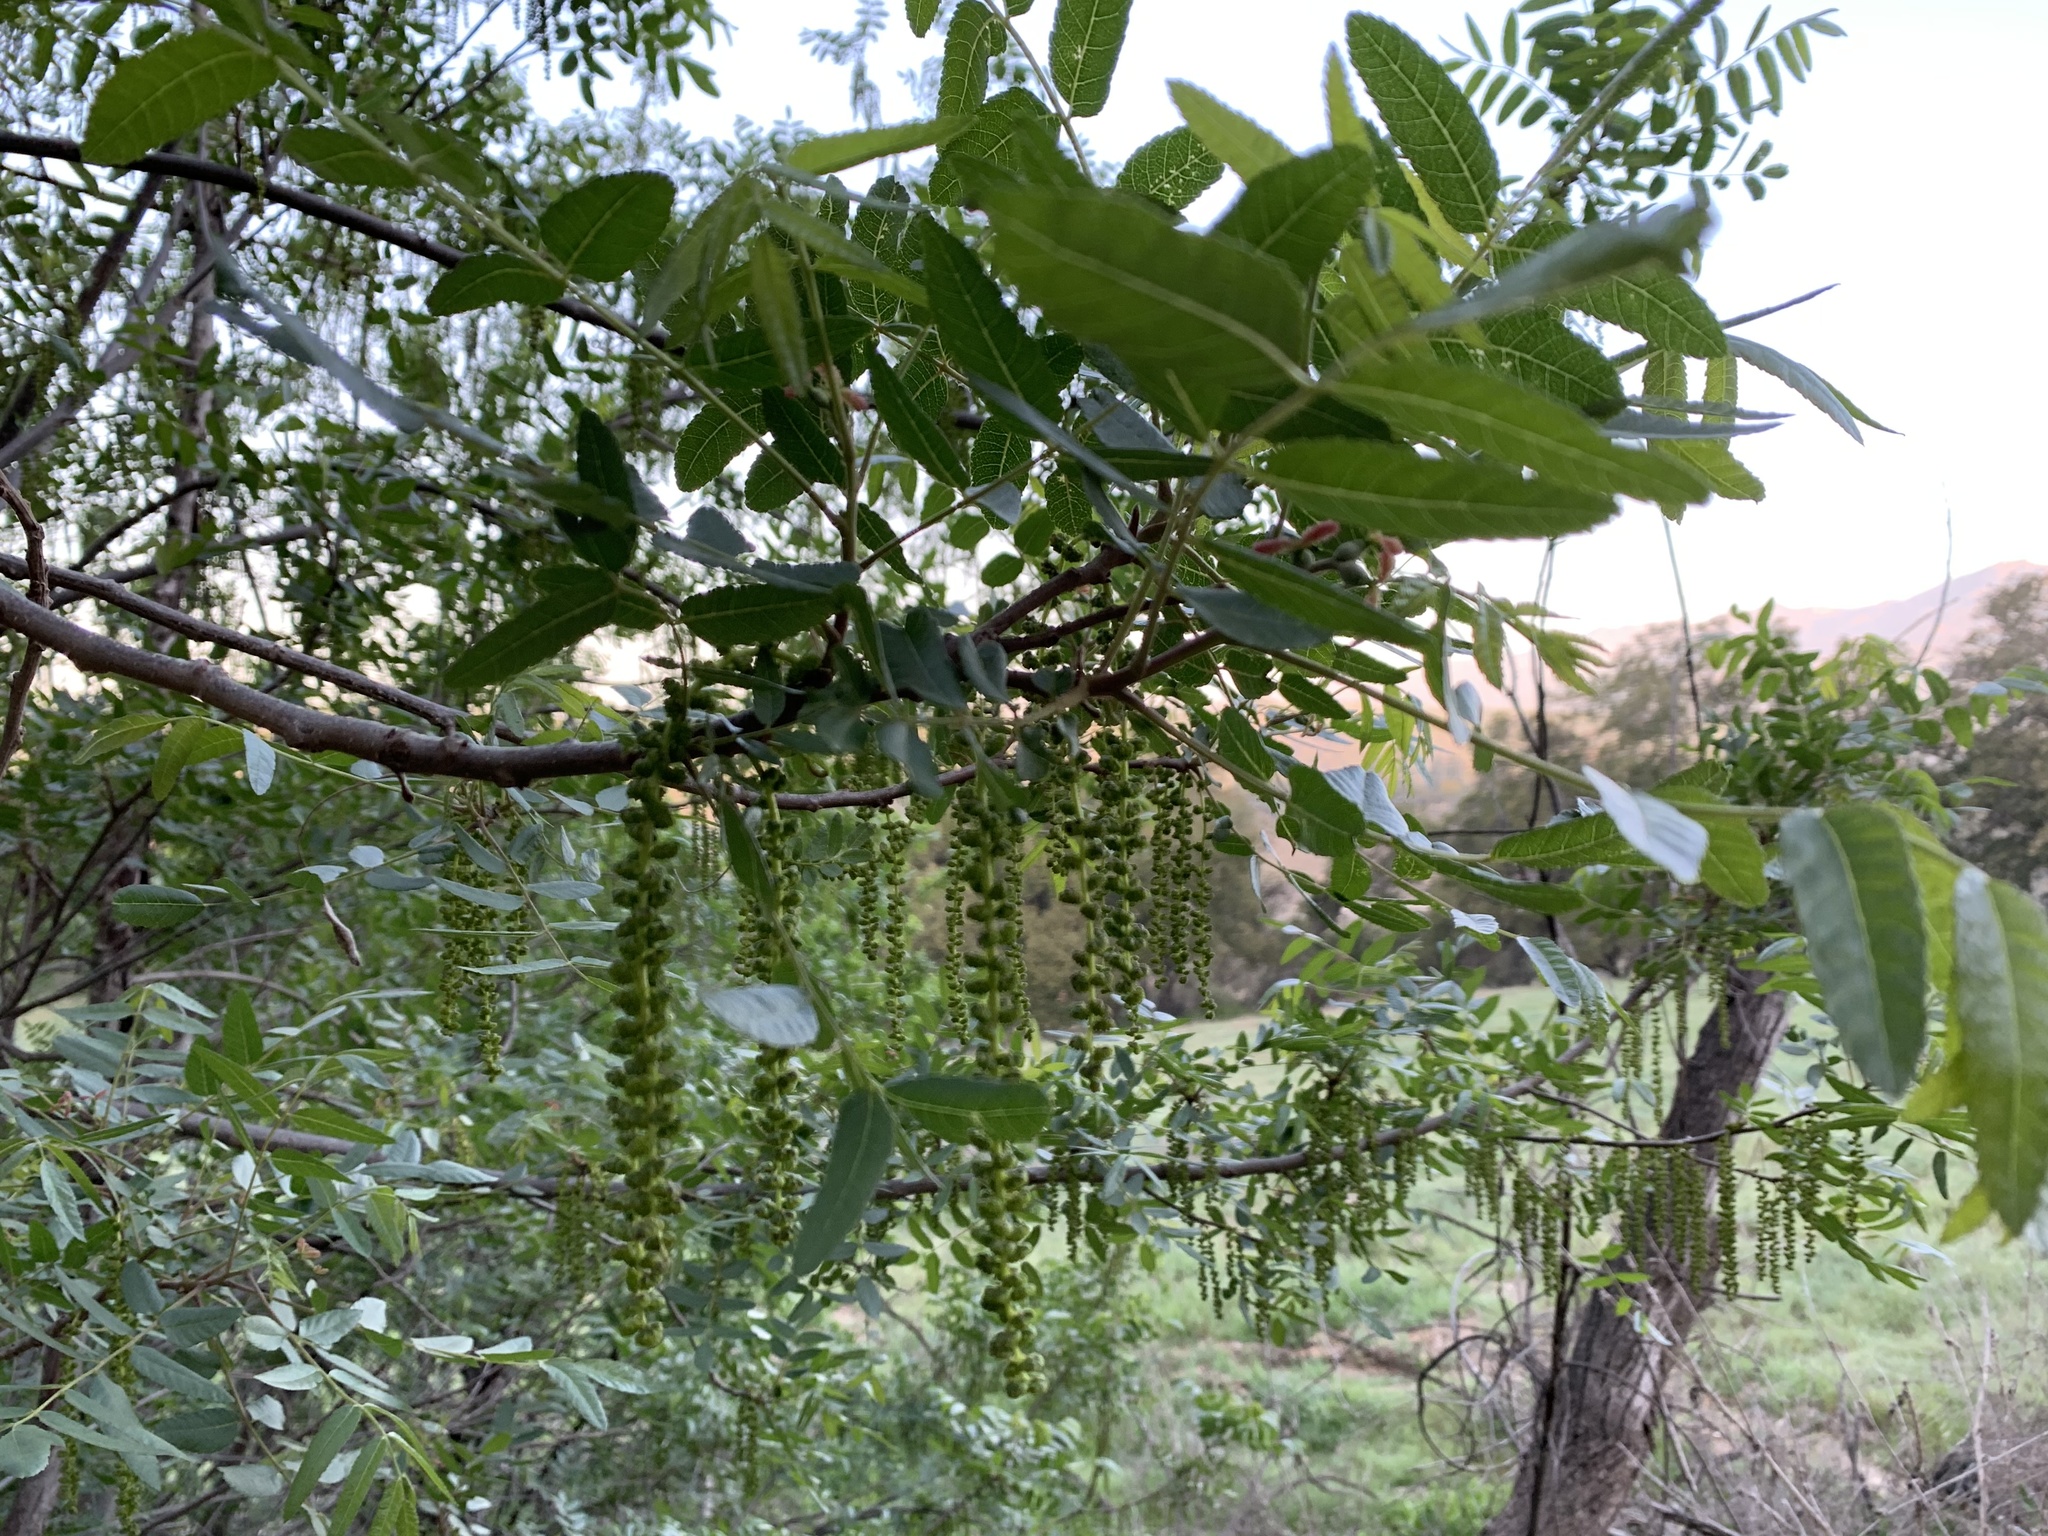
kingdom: Plantae
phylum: Tracheophyta
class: Magnoliopsida
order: Fagales
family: Juglandaceae
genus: Juglans
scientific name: Juglans californica
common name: Southern california black walnut
